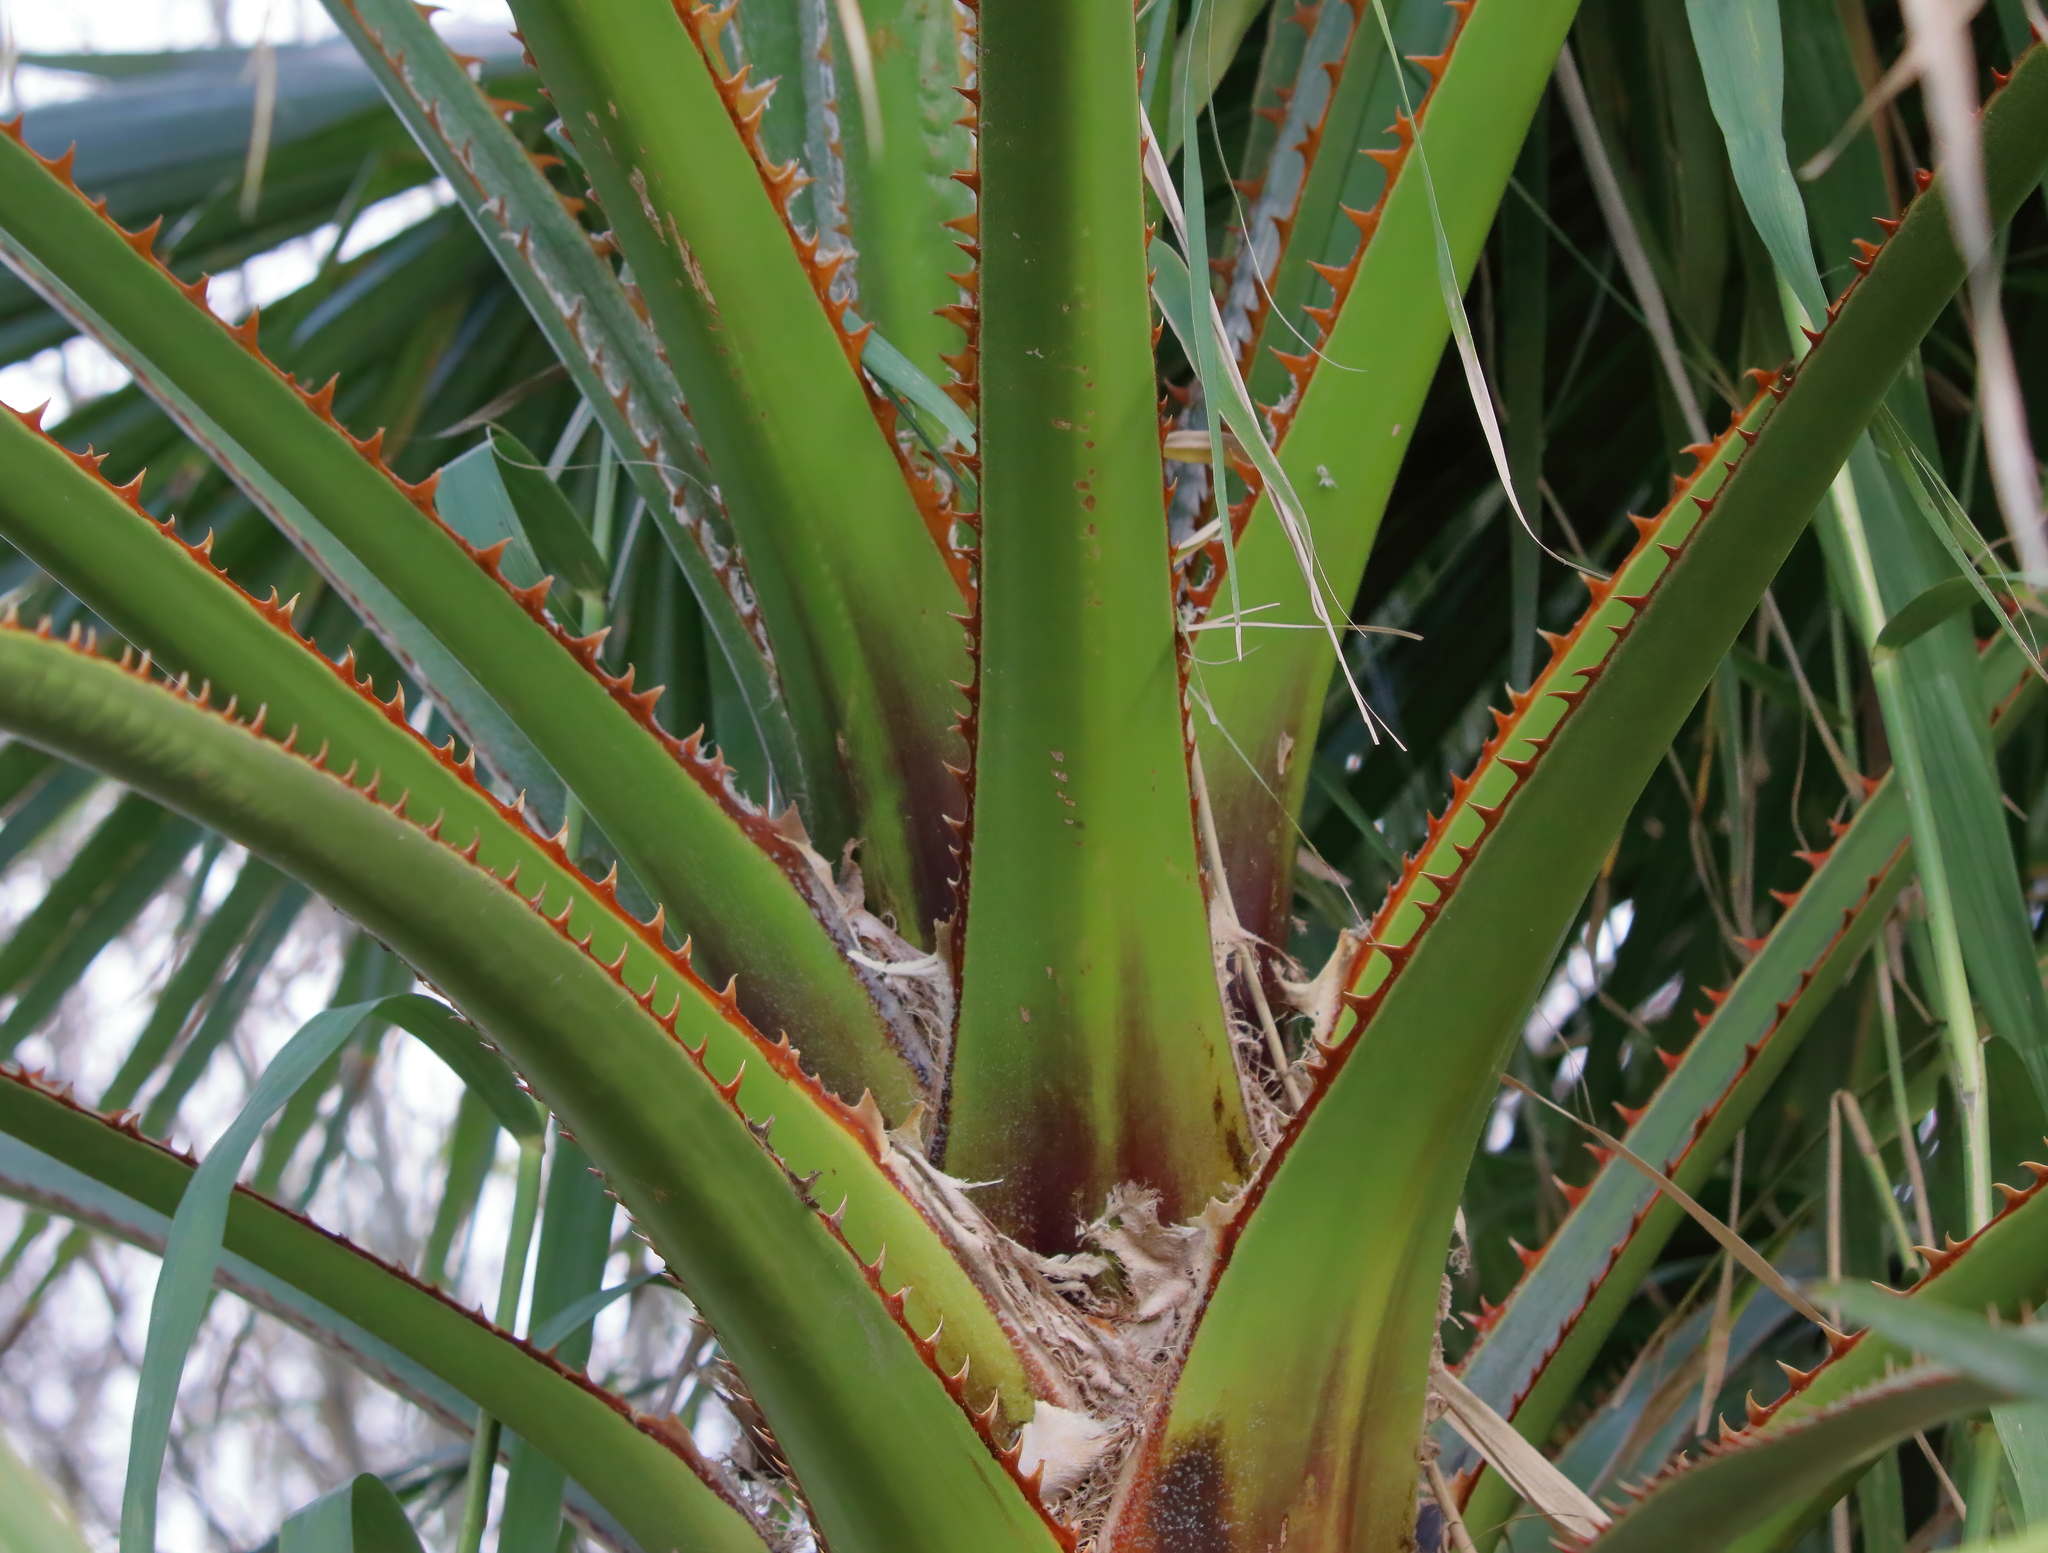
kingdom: Plantae
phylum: Tracheophyta
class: Liliopsida
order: Arecales
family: Arecaceae
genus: Washingtonia
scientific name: Washingtonia robusta
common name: Mexican fan palm
